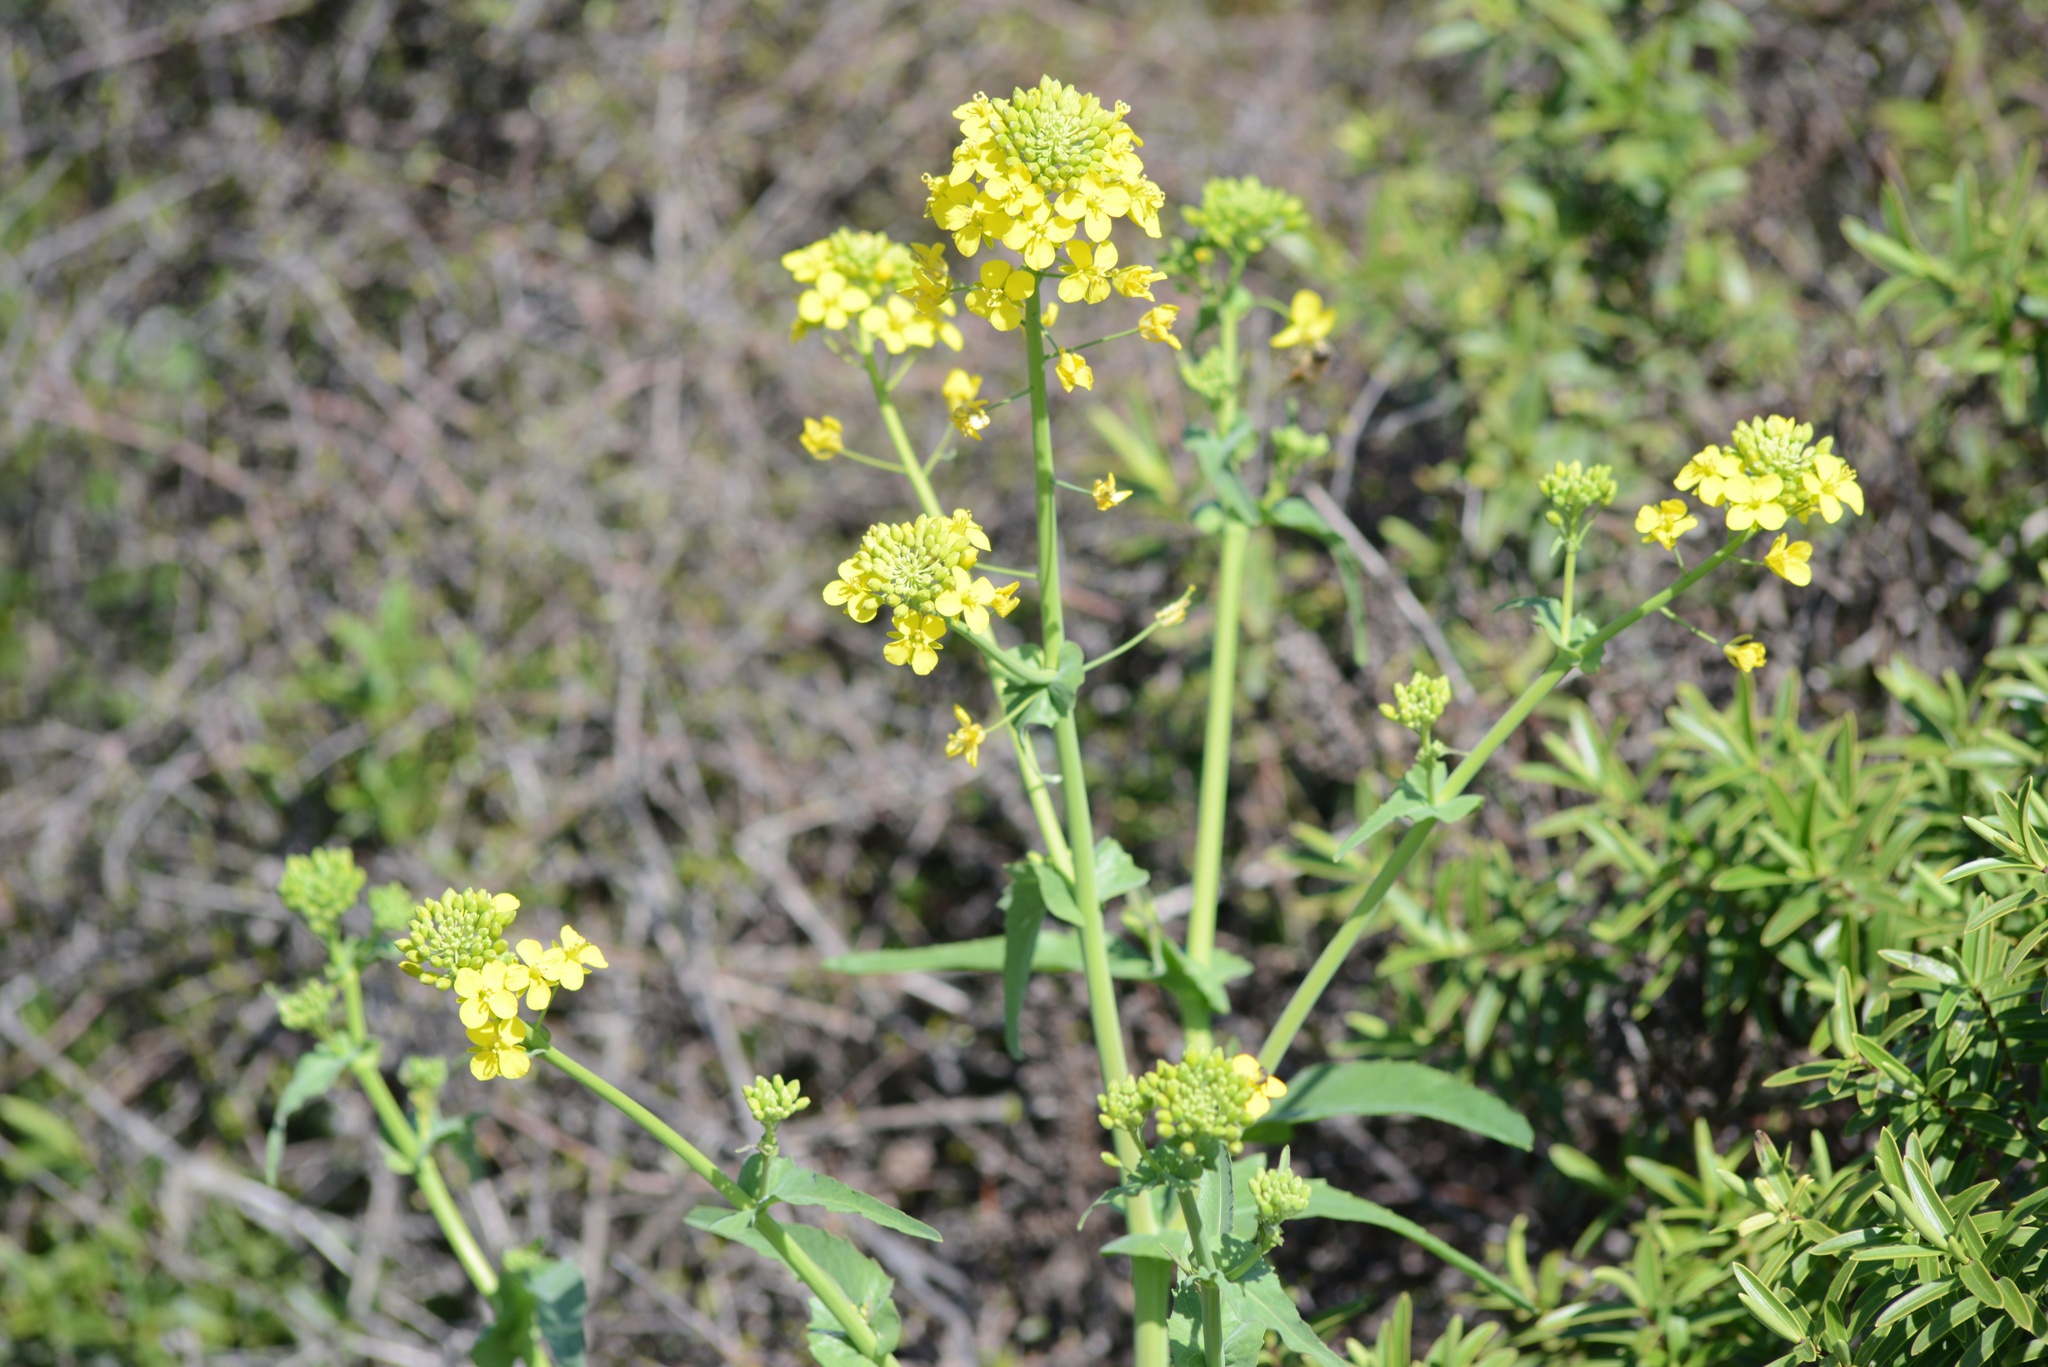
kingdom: Plantae
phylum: Tracheophyta
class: Magnoliopsida
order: Brassicales
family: Brassicaceae
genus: Brassica
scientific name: Brassica oleracea
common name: Cabbage
